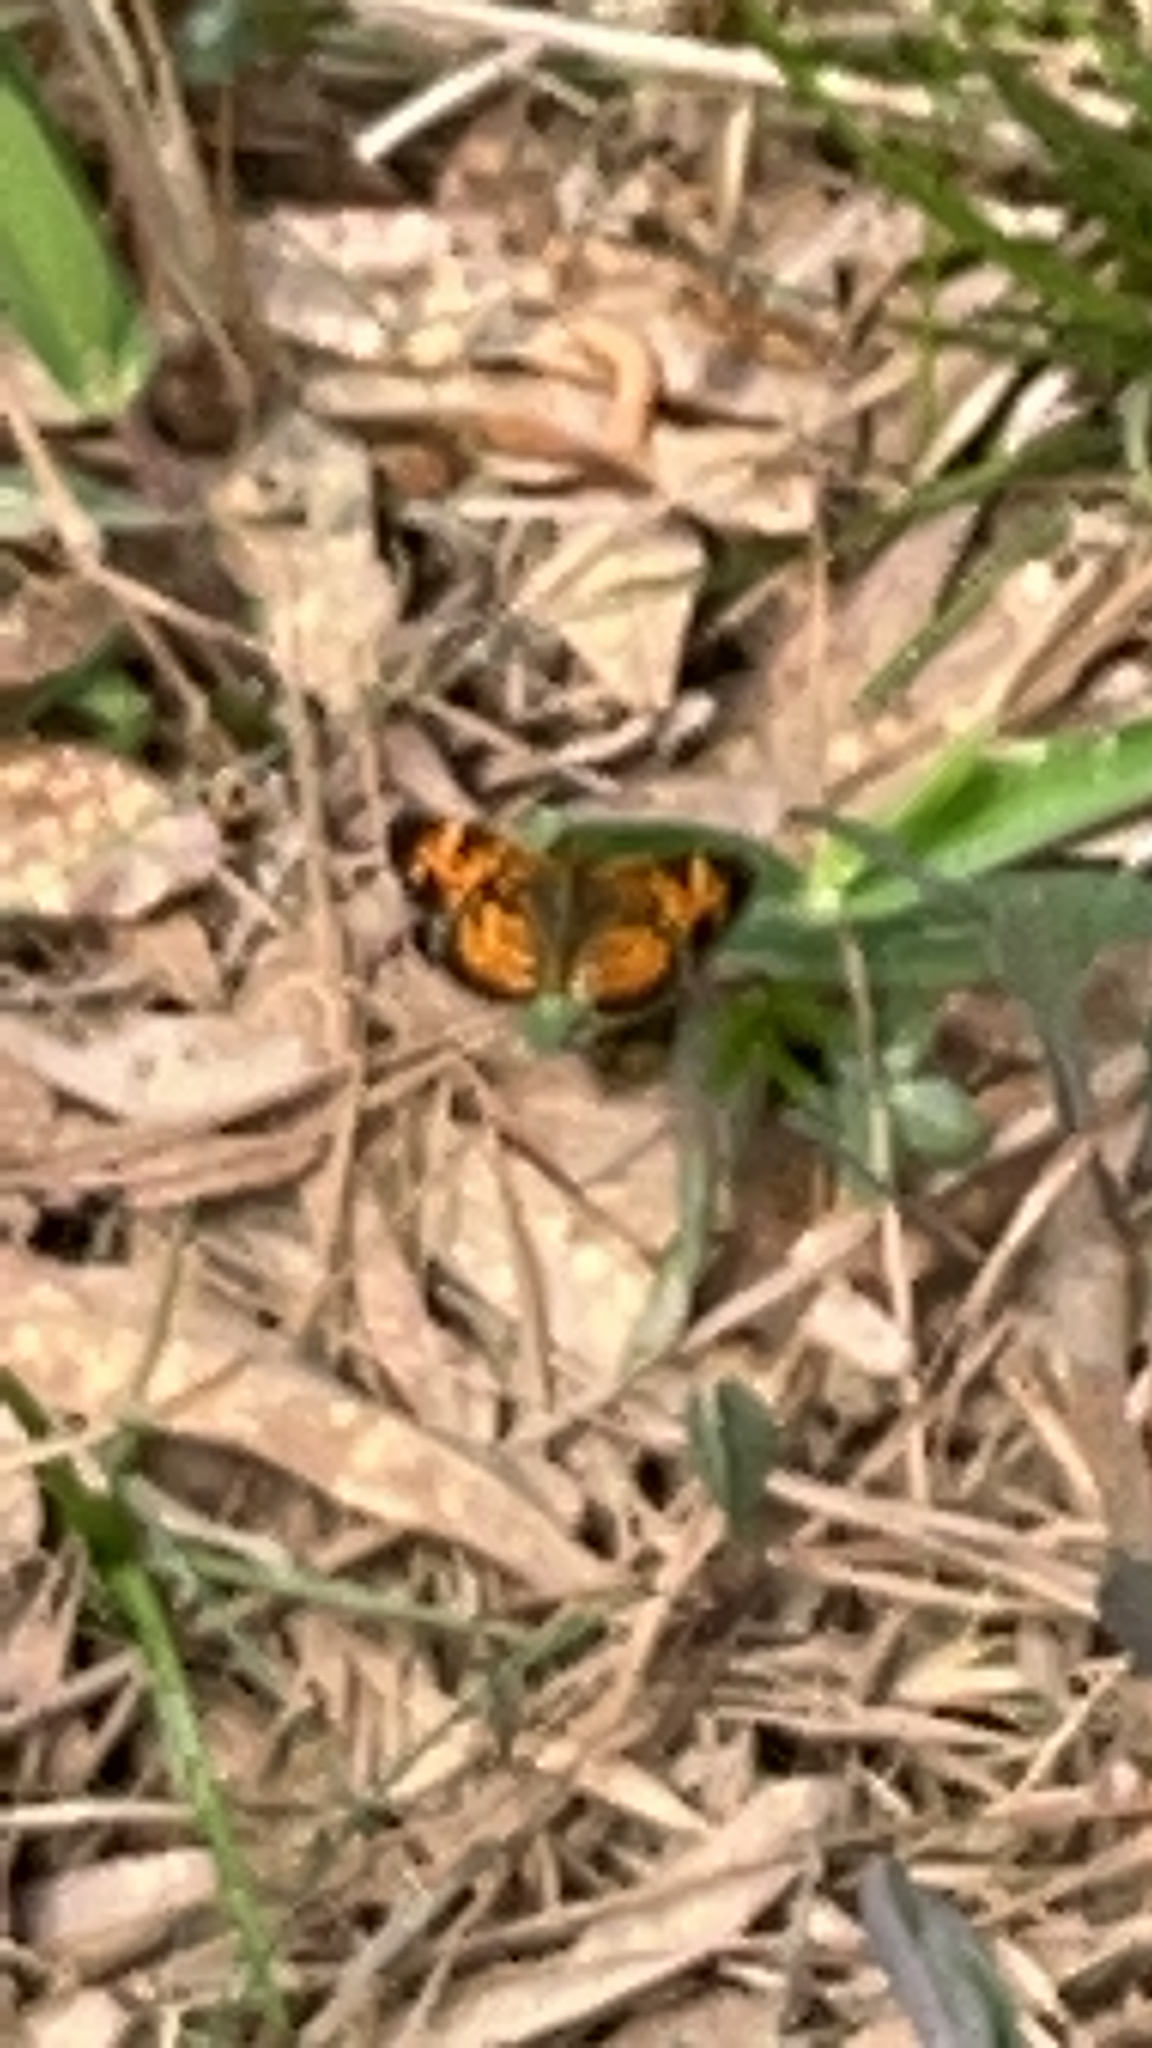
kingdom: Animalia
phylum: Arthropoda
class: Insecta
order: Lepidoptera
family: Nymphalidae
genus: Phyciodes
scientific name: Phyciodes tharos
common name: Pearl crescent
